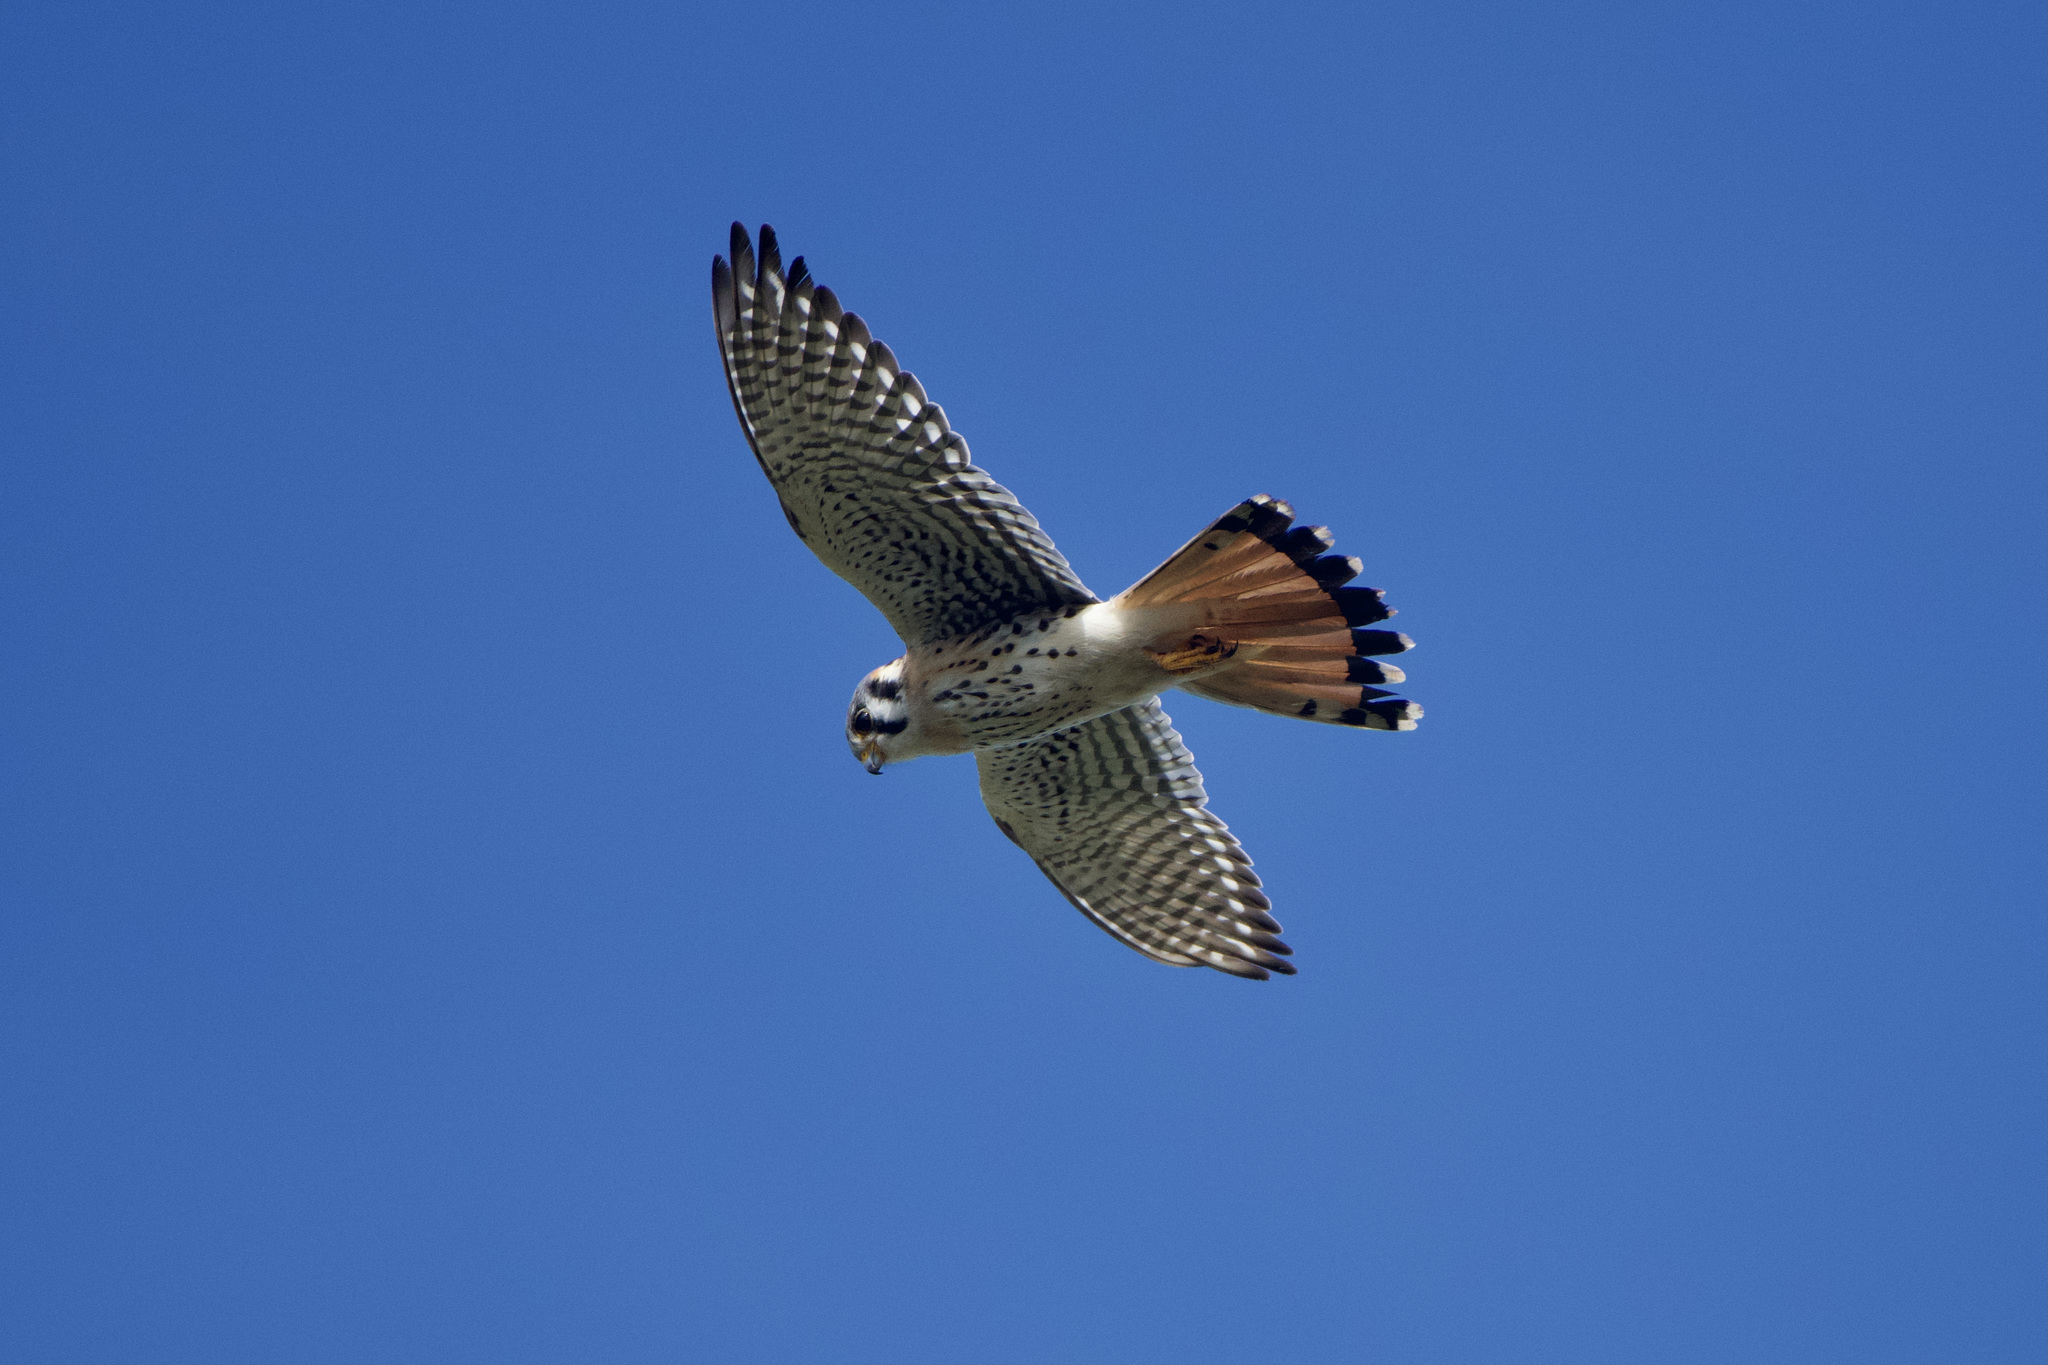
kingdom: Animalia
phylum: Chordata
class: Aves
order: Falconiformes
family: Falconidae
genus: Falco
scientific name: Falco sparverius
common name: American kestrel
